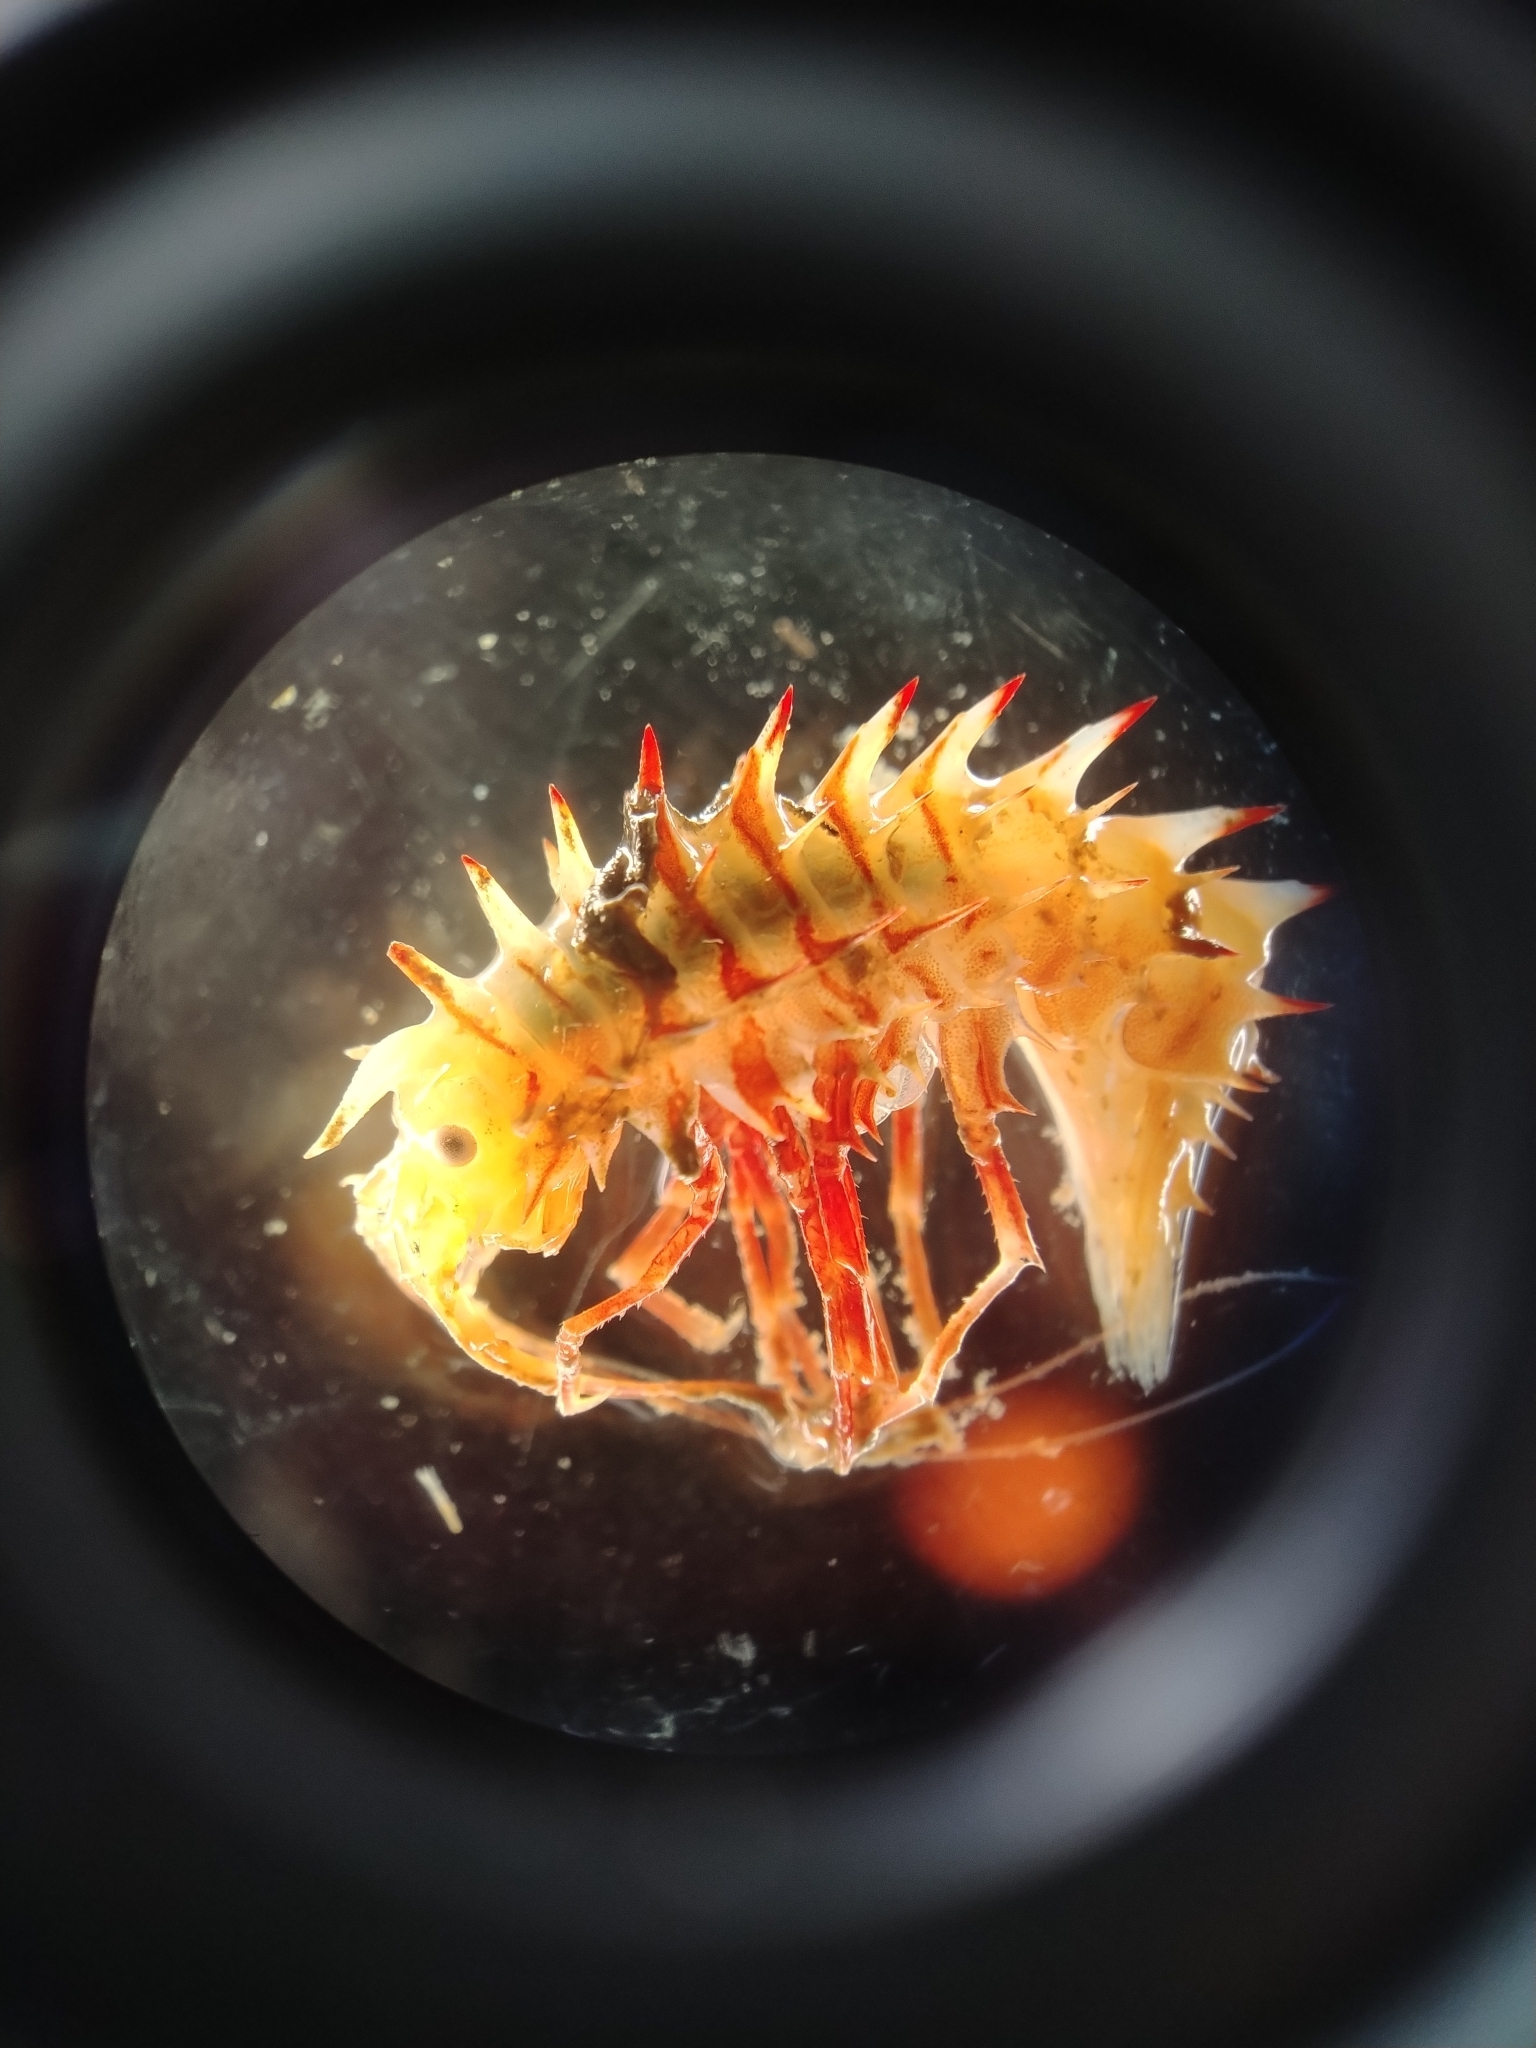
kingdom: Animalia
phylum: Arthropoda
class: Malacostraca
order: Amphipoda
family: Paramphithoidae
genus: Paramphithoe
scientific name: Paramphithoe hystrix
